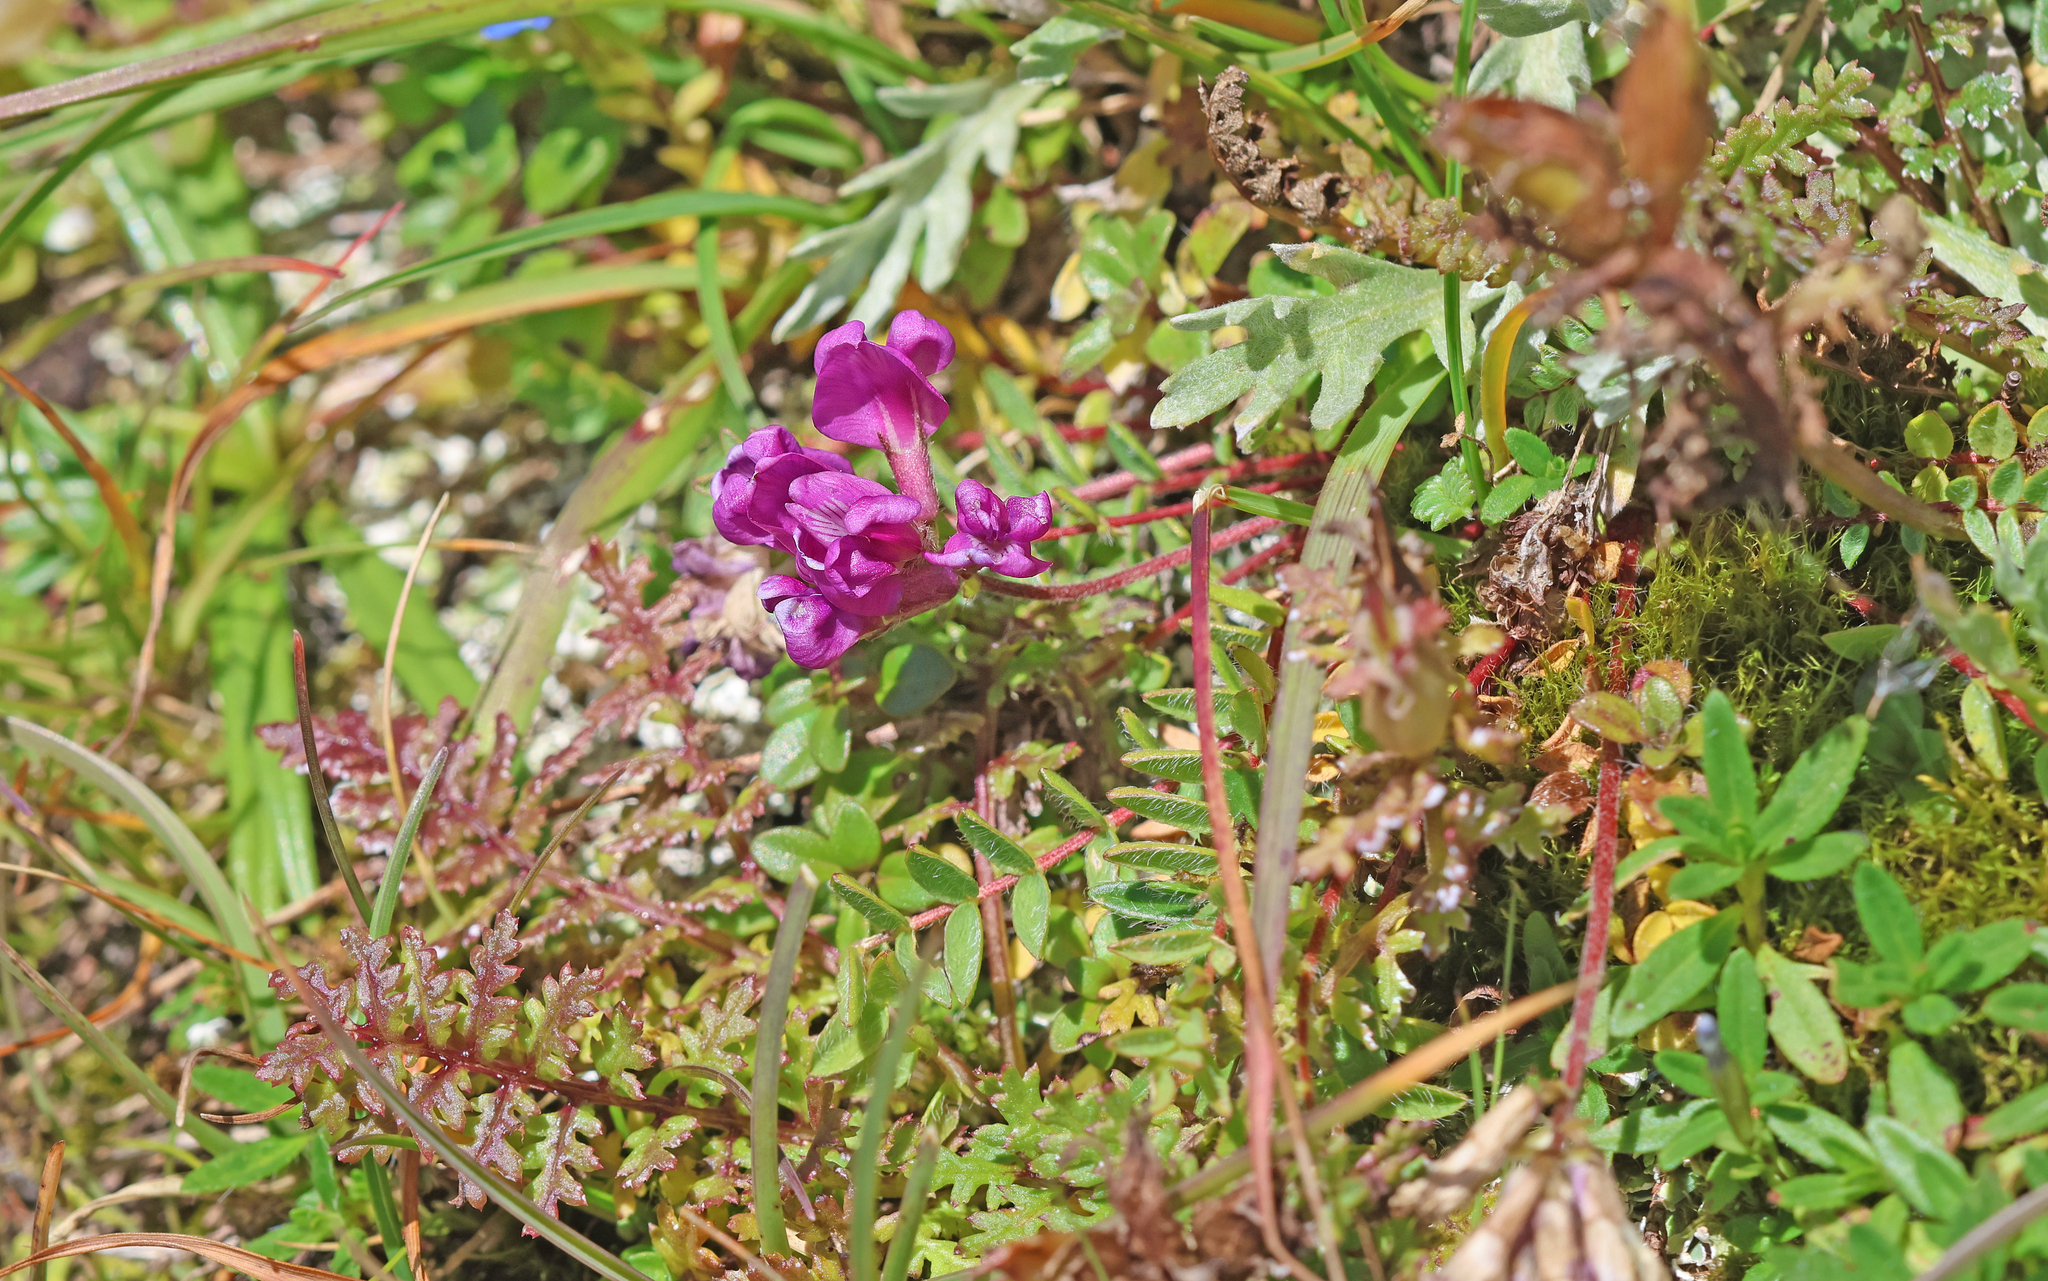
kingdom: Plantae
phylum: Tracheophyta
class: Magnoliopsida
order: Fabales
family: Fabaceae
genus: Oxytropis
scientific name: Oxytropis neglecta
